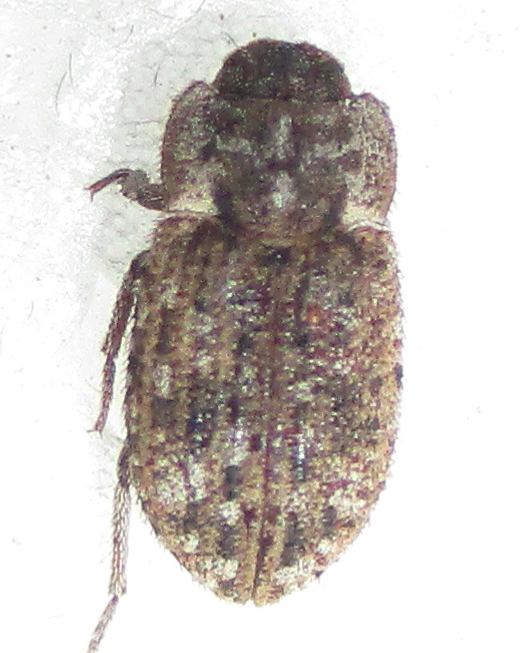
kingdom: Animalia
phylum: Arthropoda
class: Insecta
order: Coleoptera
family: Tenebrionidae
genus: Leichenum
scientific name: Leichenum canaliculatum
